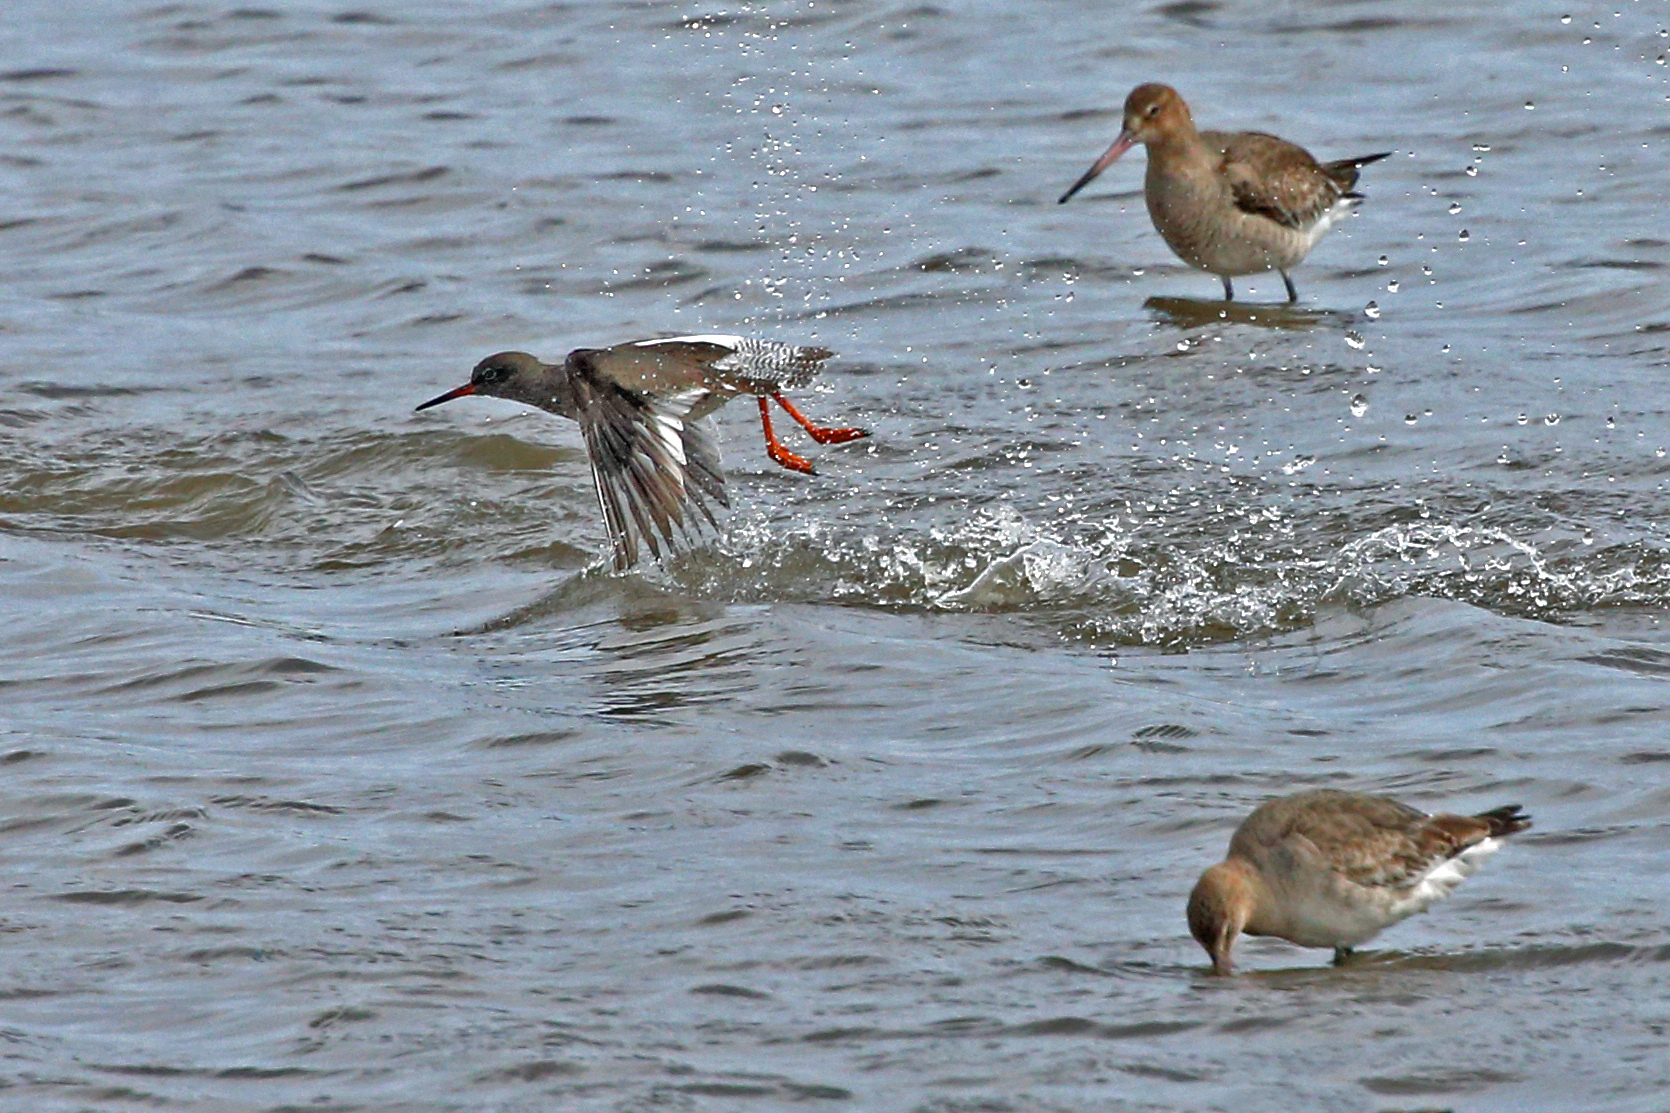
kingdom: Animalia
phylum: Chordata
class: Aves
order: Charadriiformes
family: Scolopacidae
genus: Tringa
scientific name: Tringa totanus
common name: Common redshank
